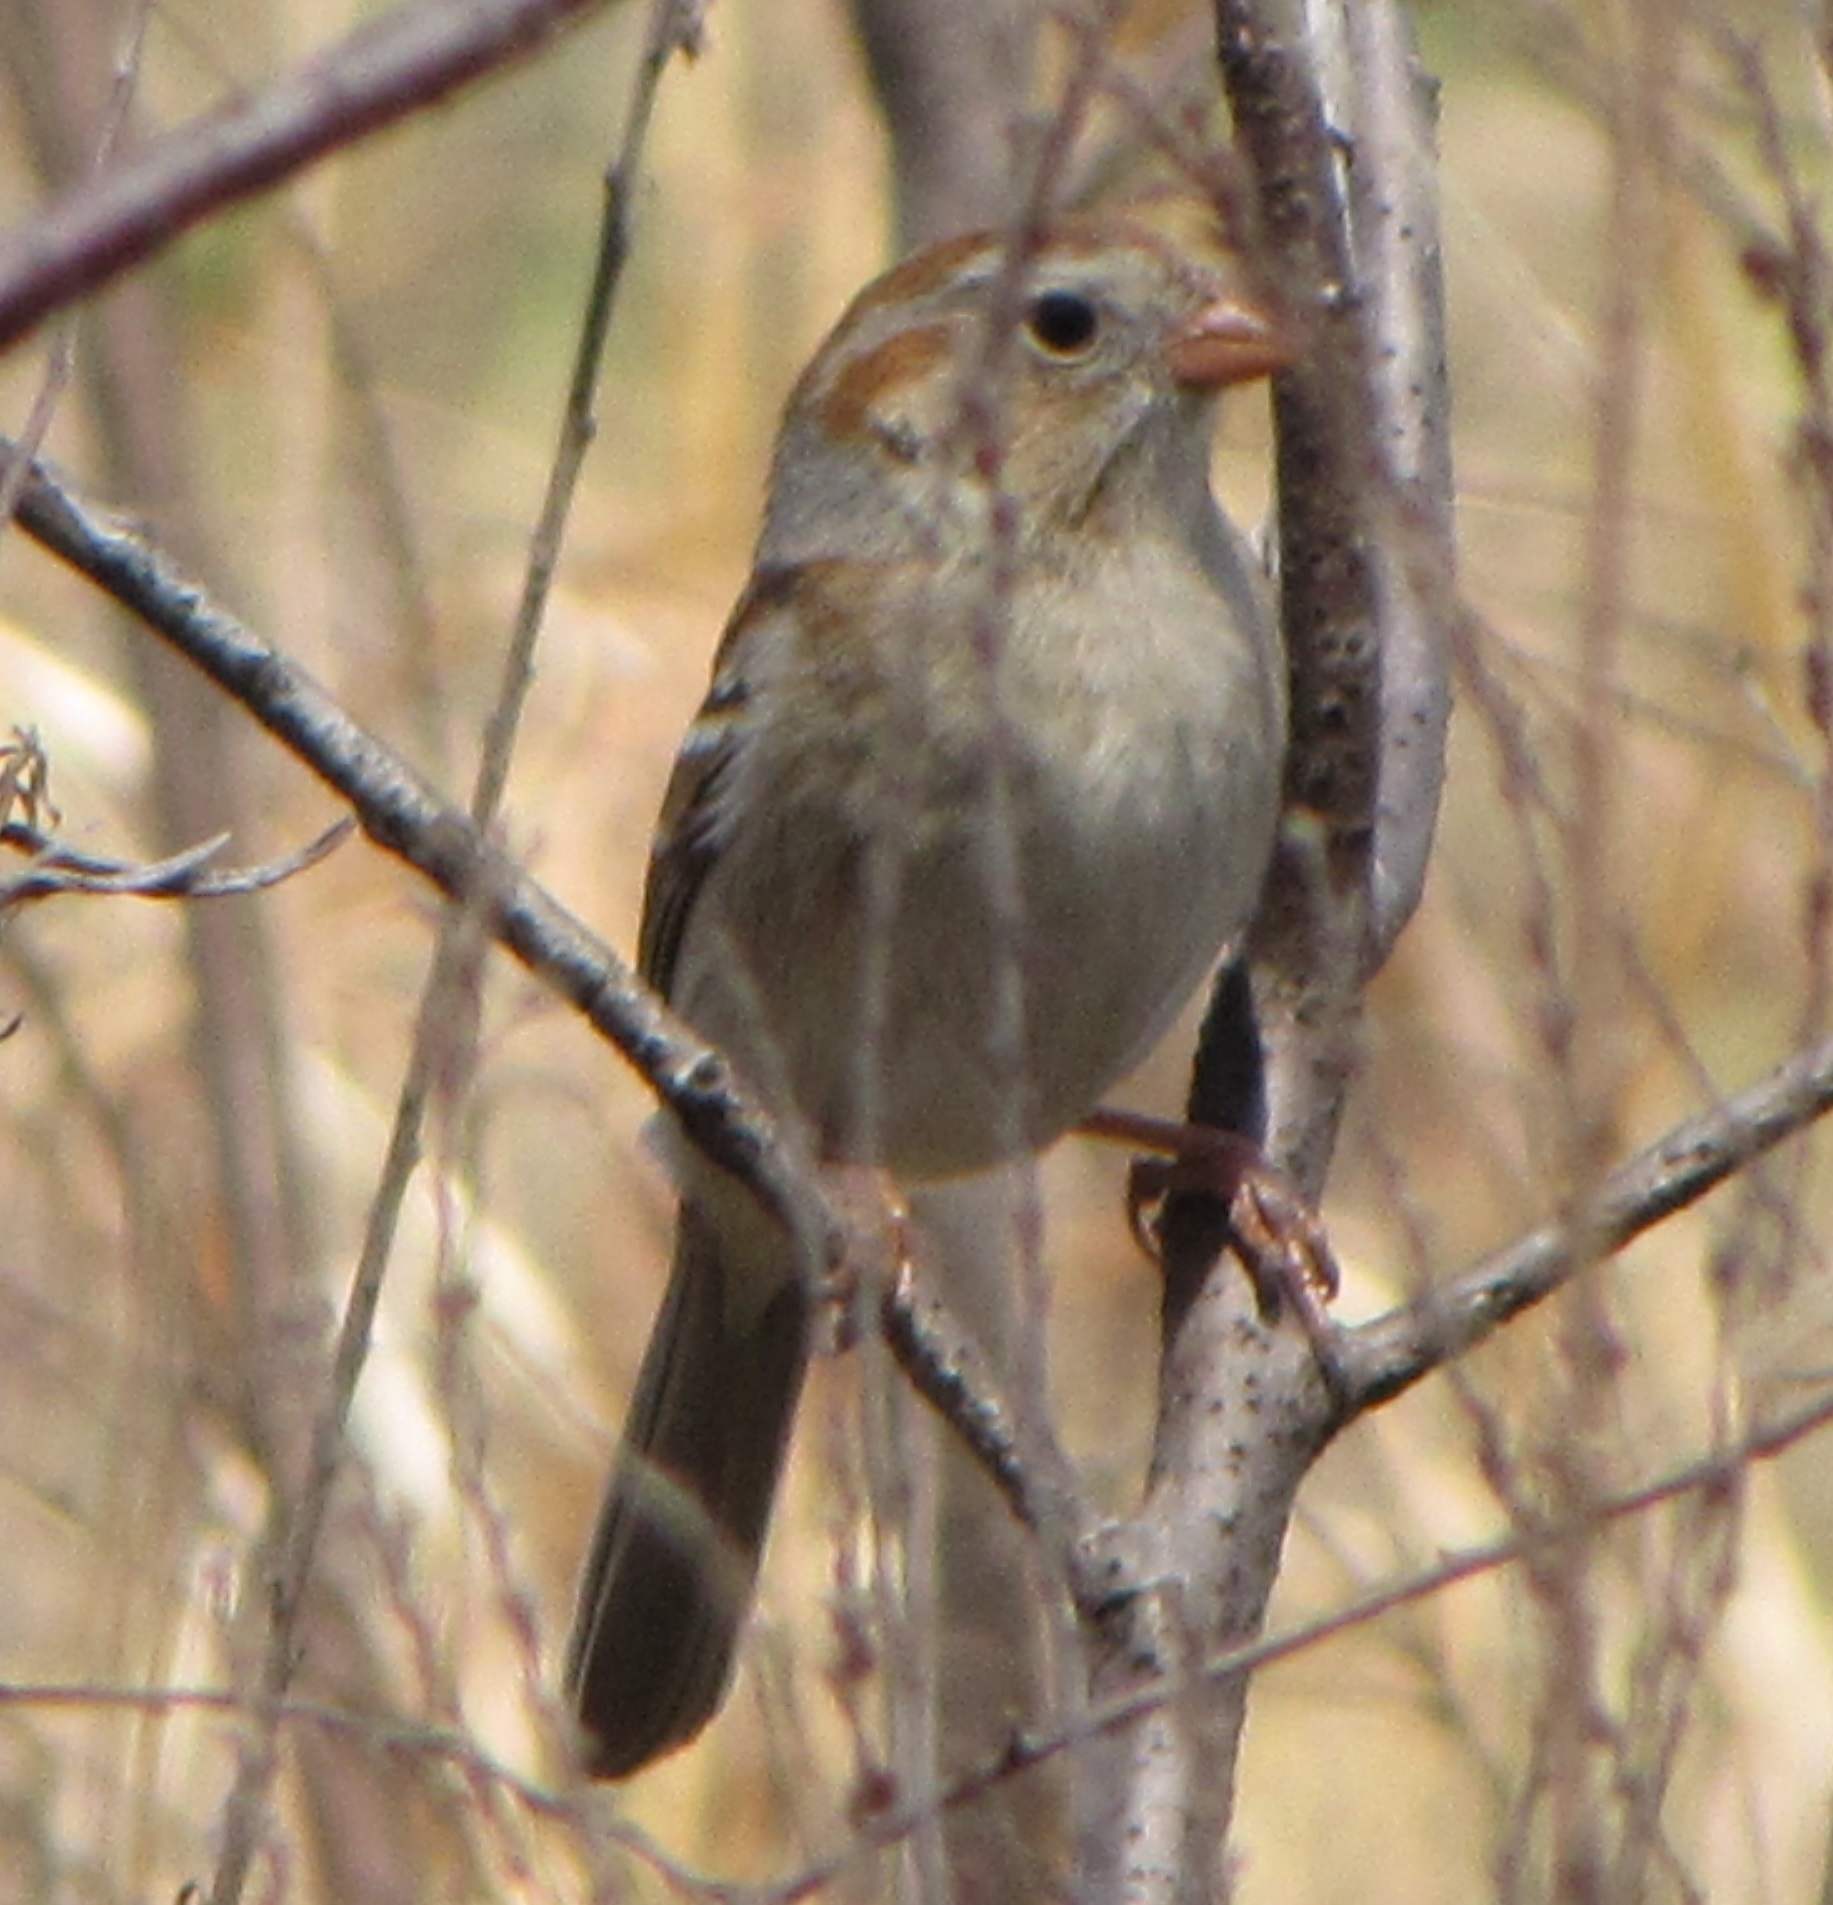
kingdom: Animalia
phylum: Chordata
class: Aves
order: Passeriformes
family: Passerellidae
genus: Spizella
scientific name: Spizella pusilla
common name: Field sparrow
